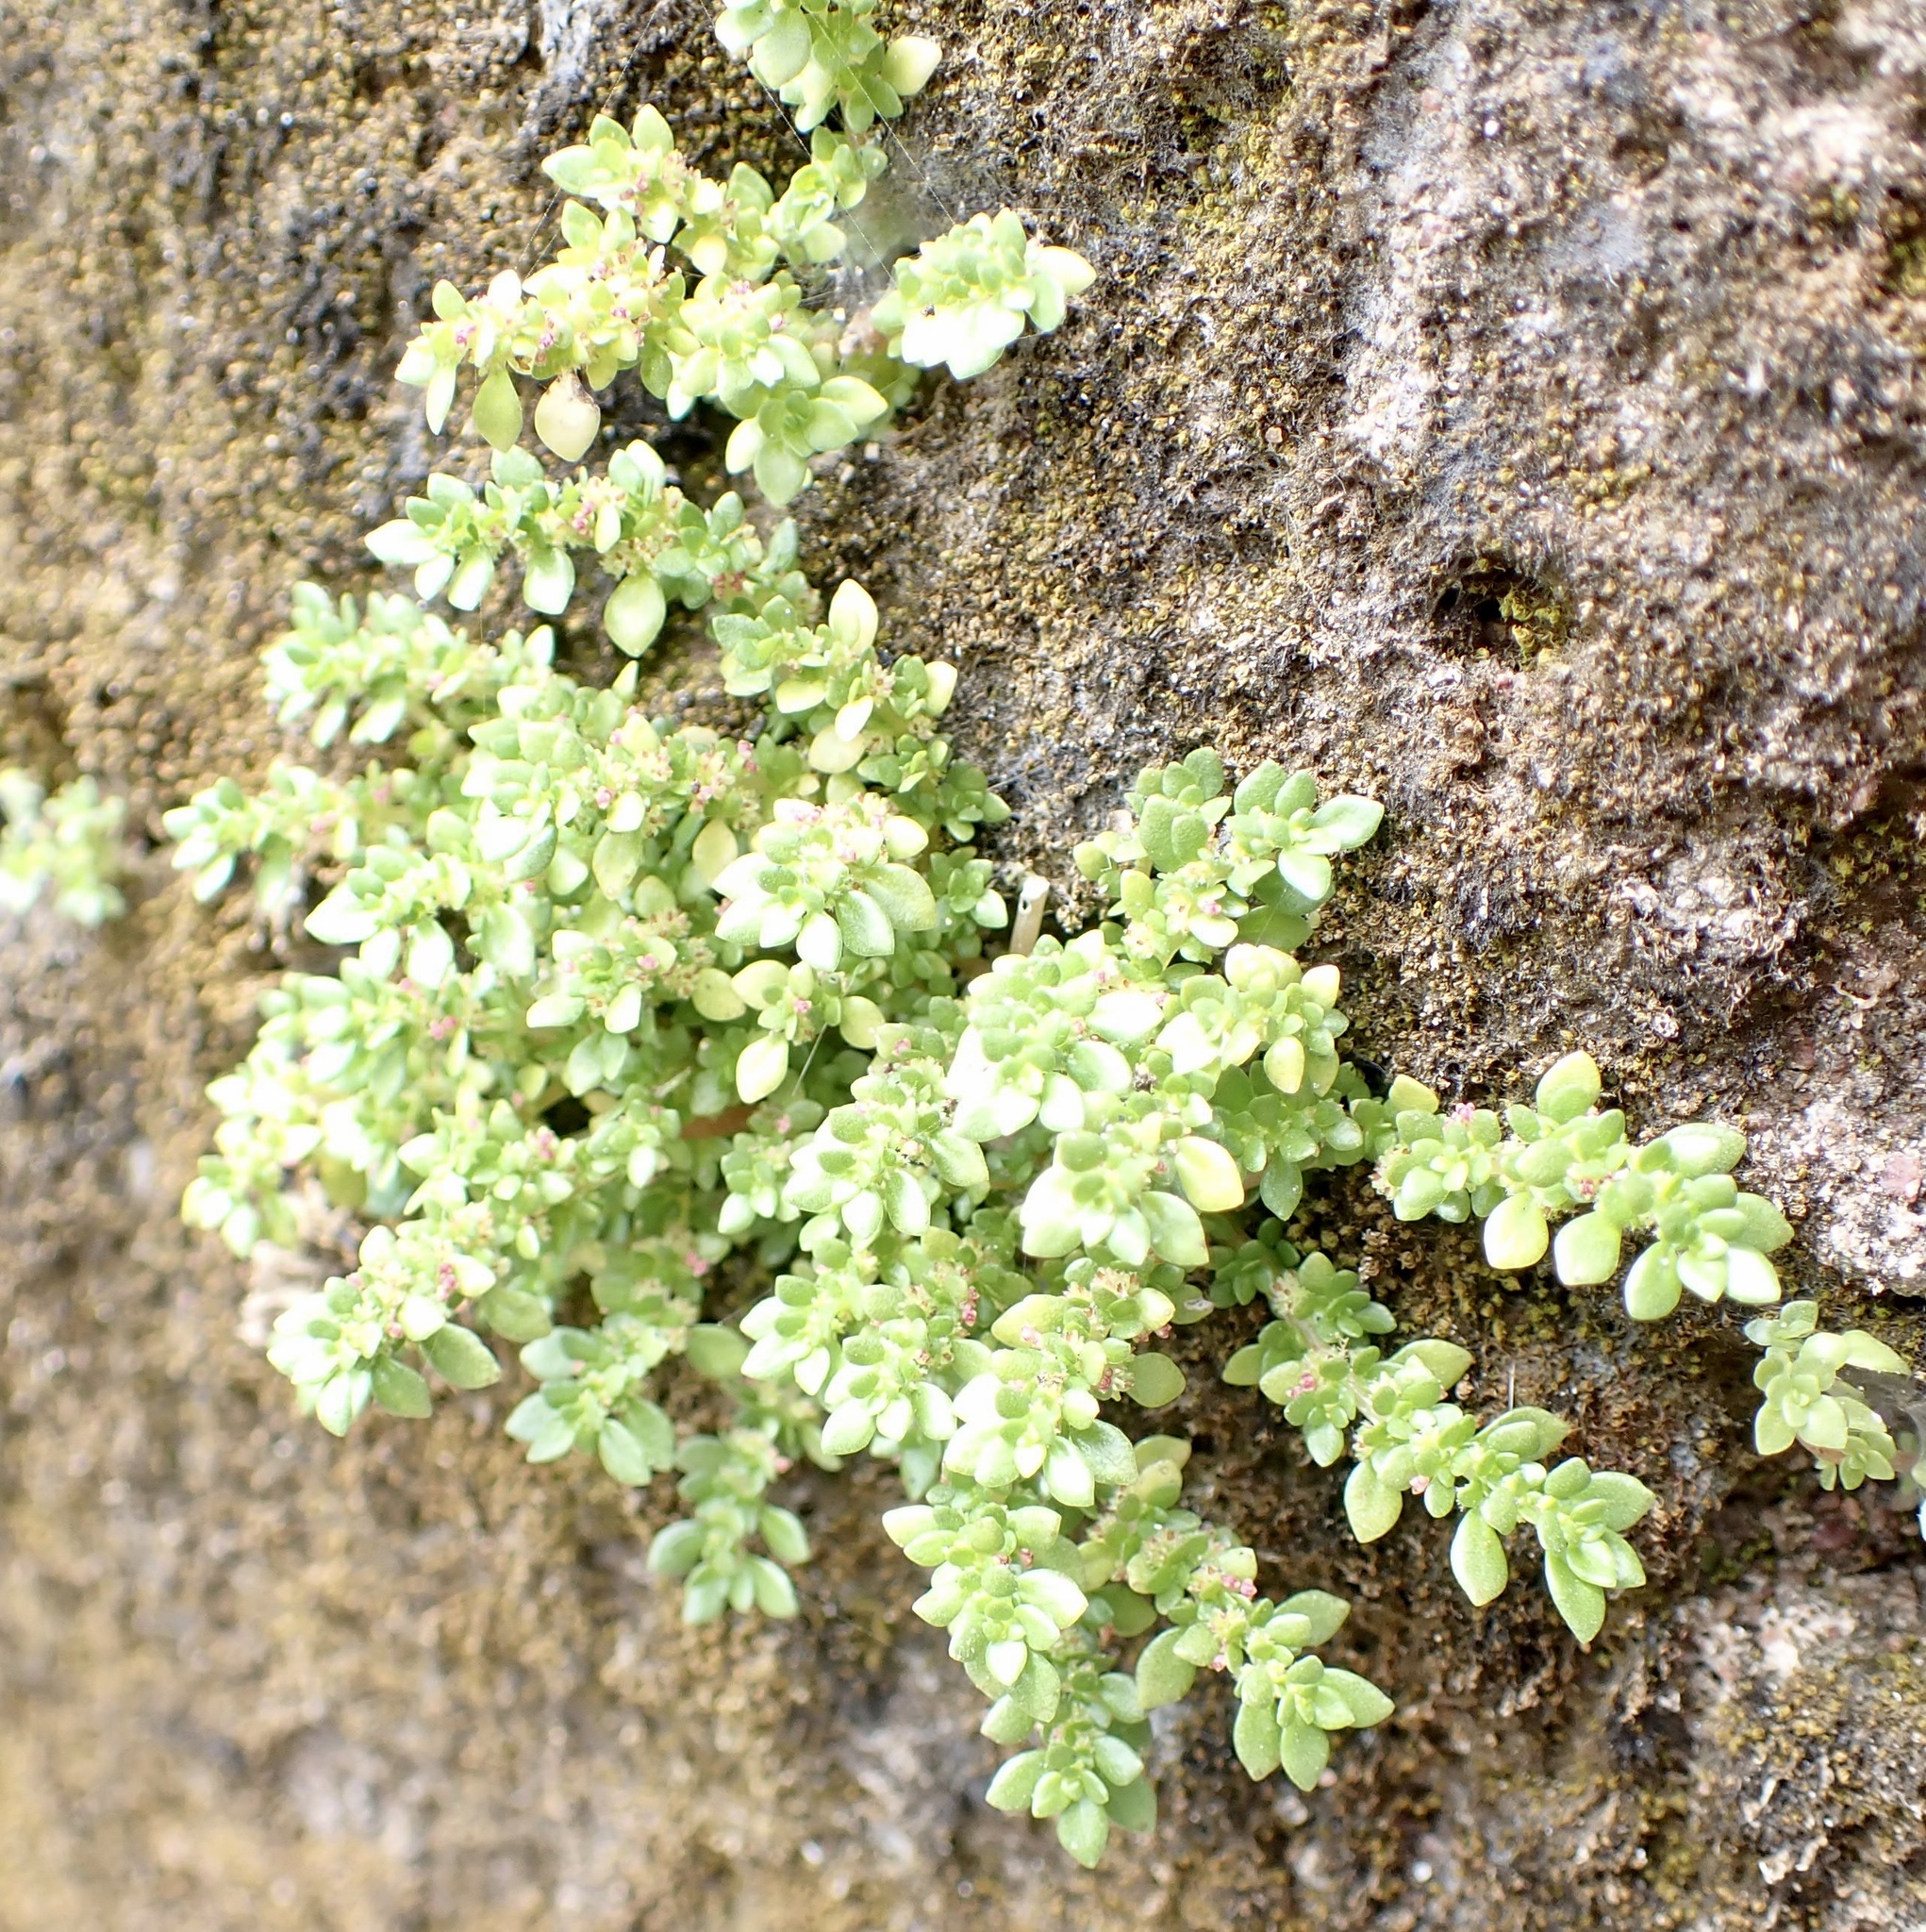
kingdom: Plantae
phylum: Tracheophyta
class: Magnoliopsida
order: Rosales
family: Urticaceae
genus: Pilea
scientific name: Pilea microphylla
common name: Artillery-plant
